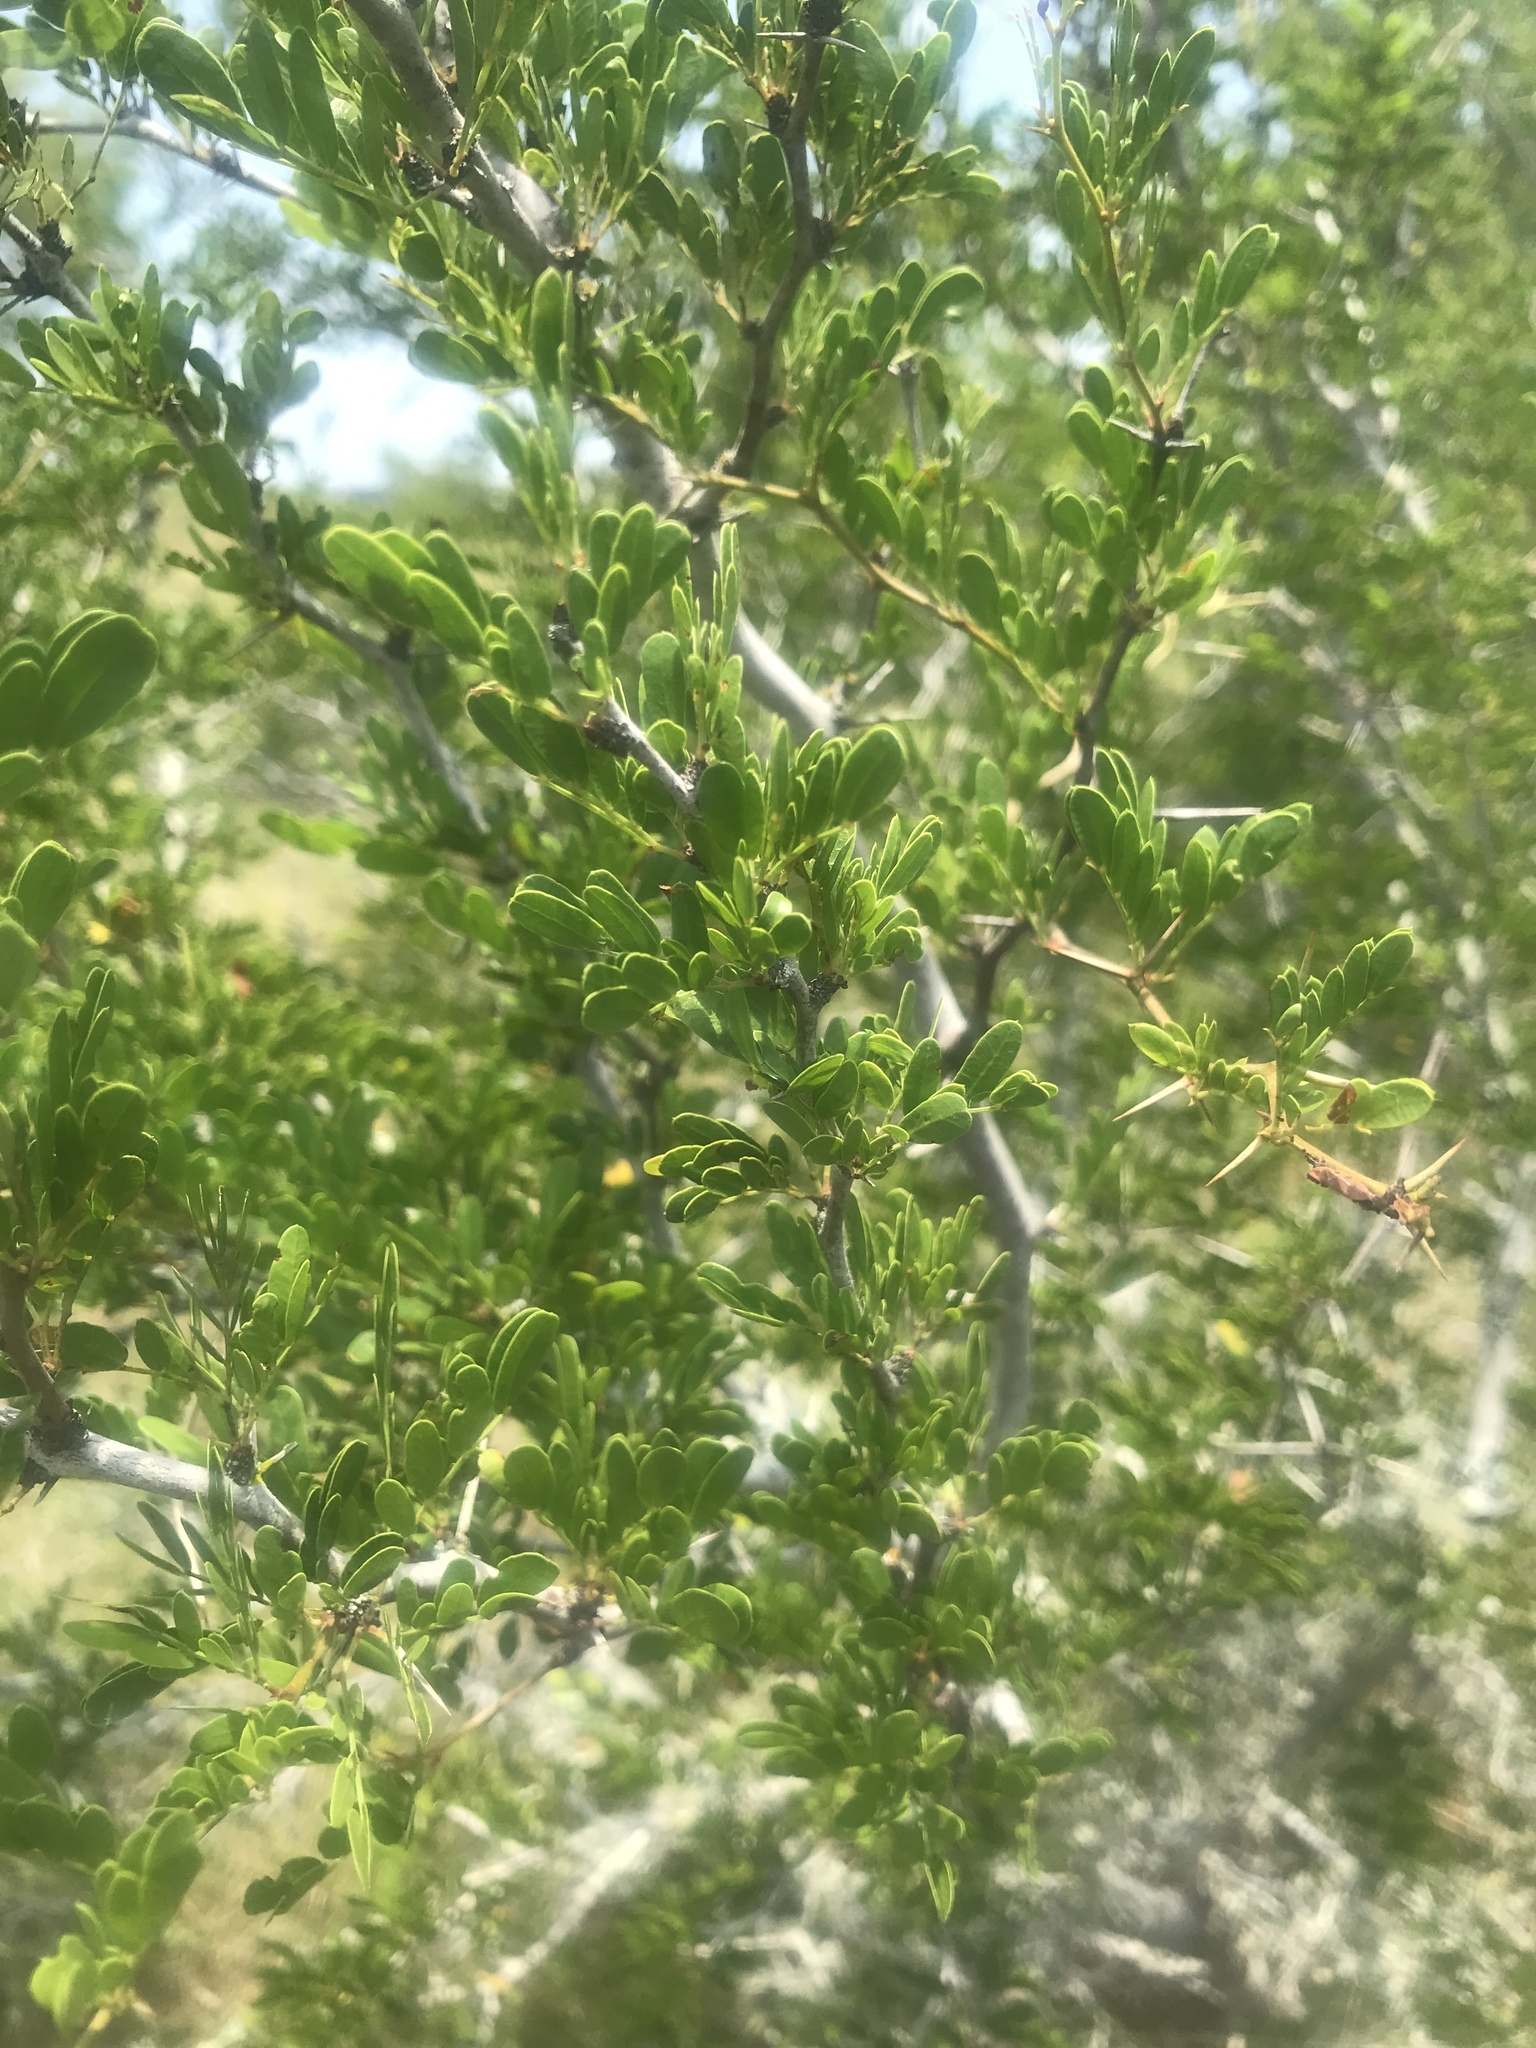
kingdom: Plantae
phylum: Tracheophyta
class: Magnoliopsida
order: Fabales
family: Fabaceae
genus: Vachellia
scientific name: Vachellia rigidula
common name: Blackbrush
